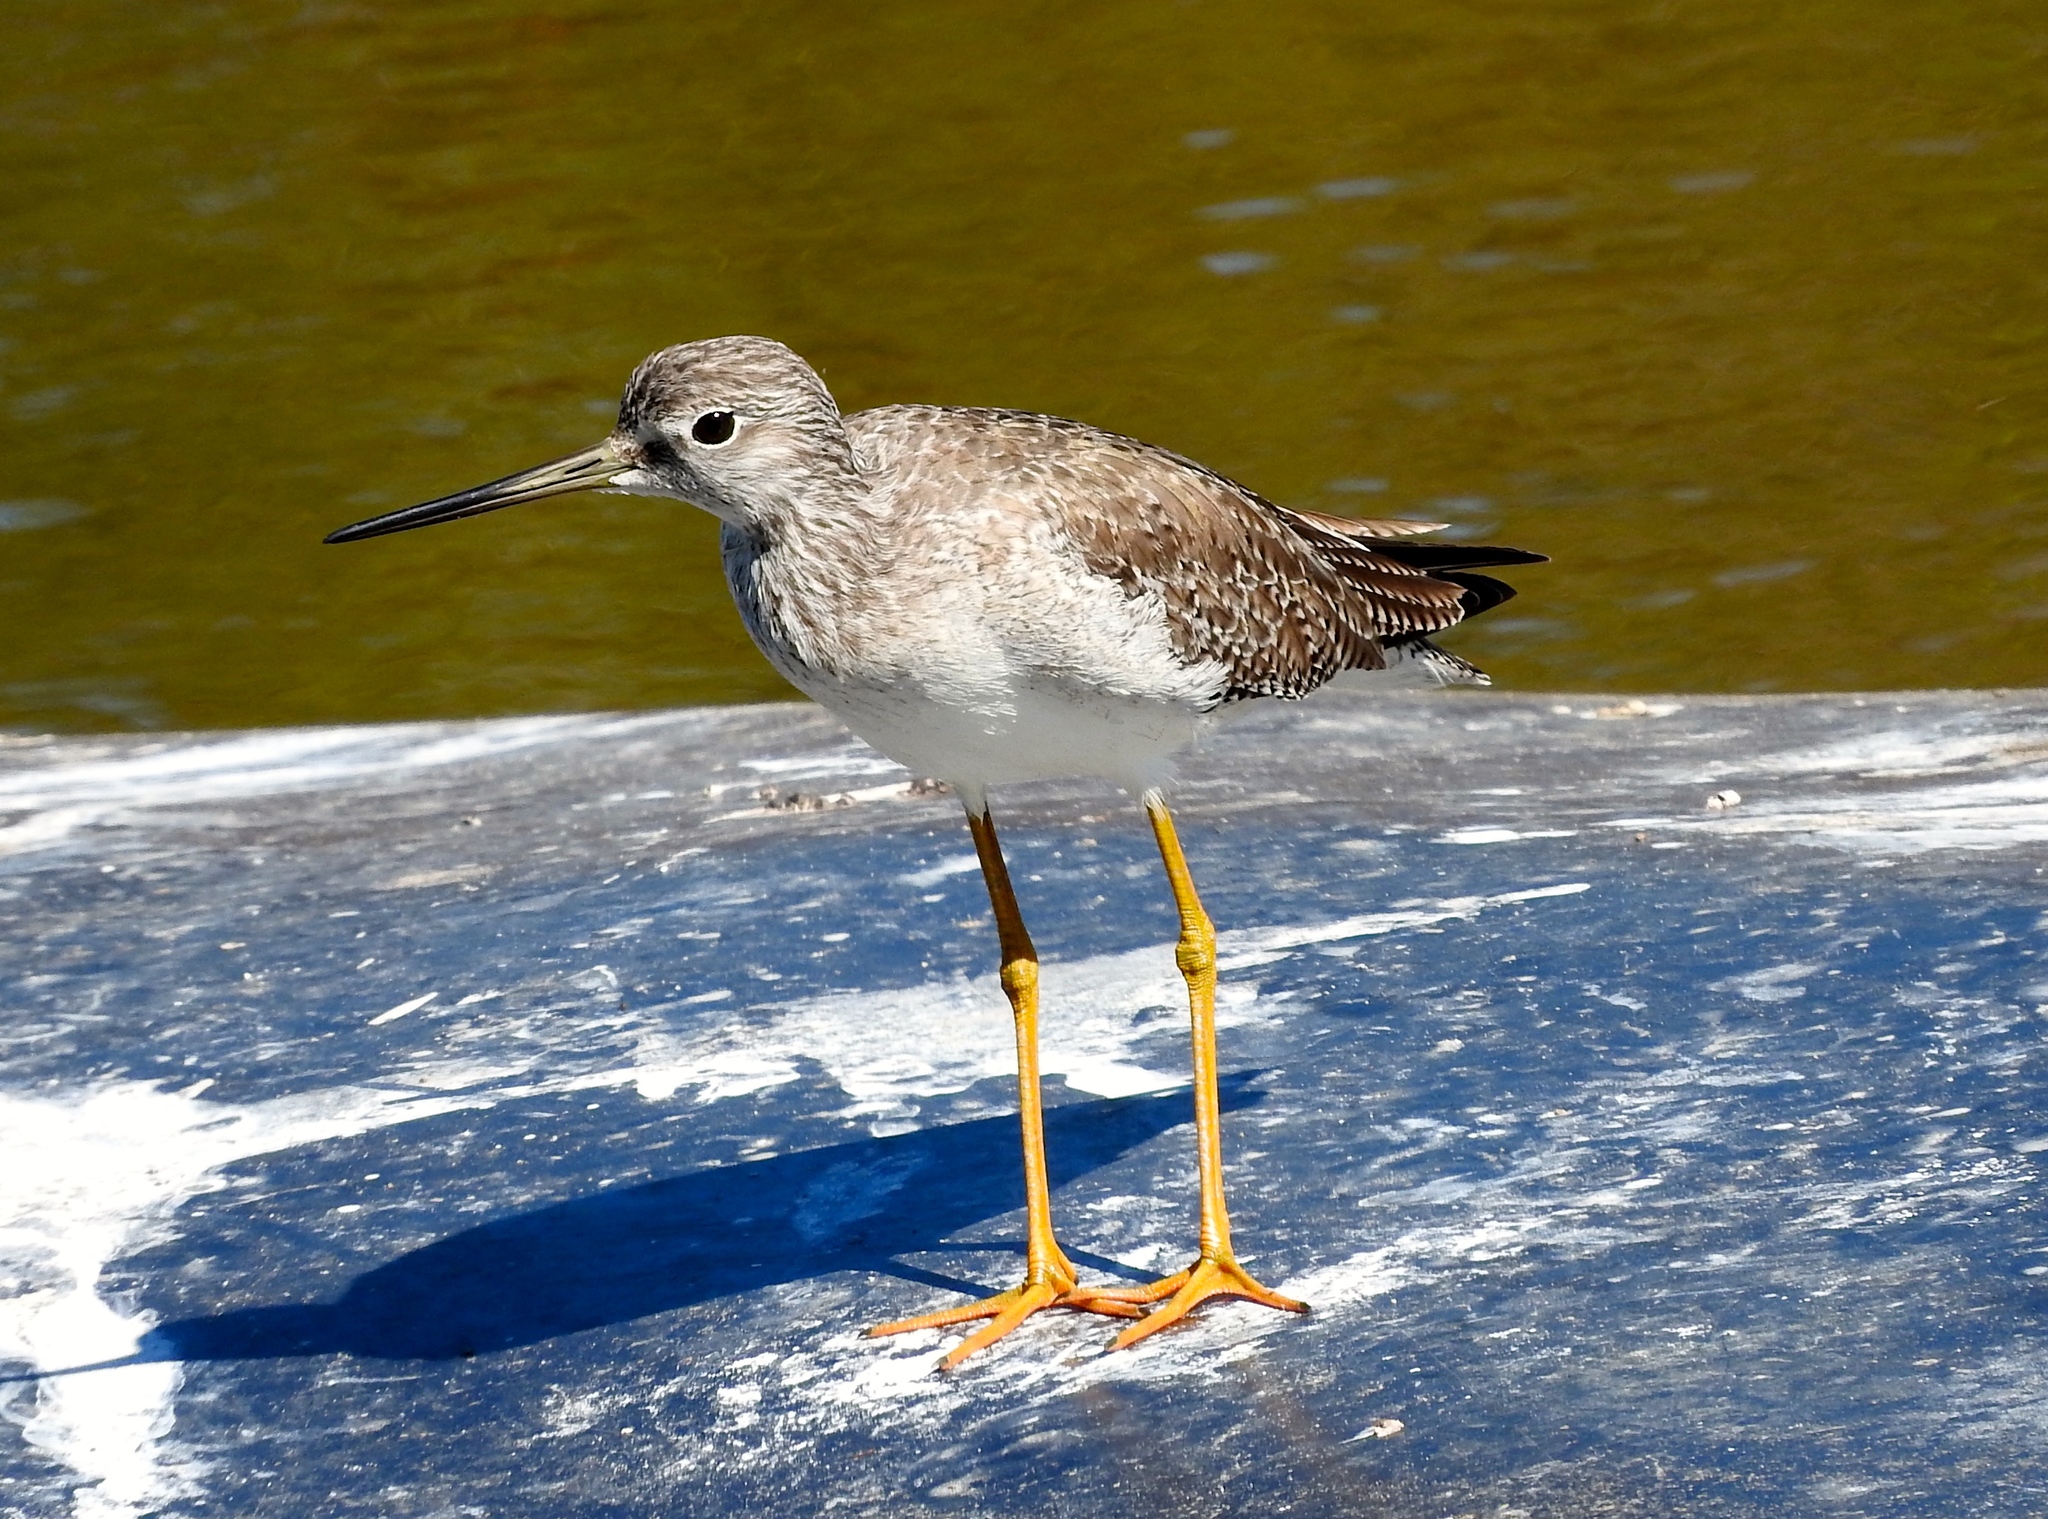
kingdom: Animalia
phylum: Chordata
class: Aves
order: Charadriiformes
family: Scolopacidae
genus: Tringa
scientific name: Tringa melanoleuca
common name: Greater yellowlegs
